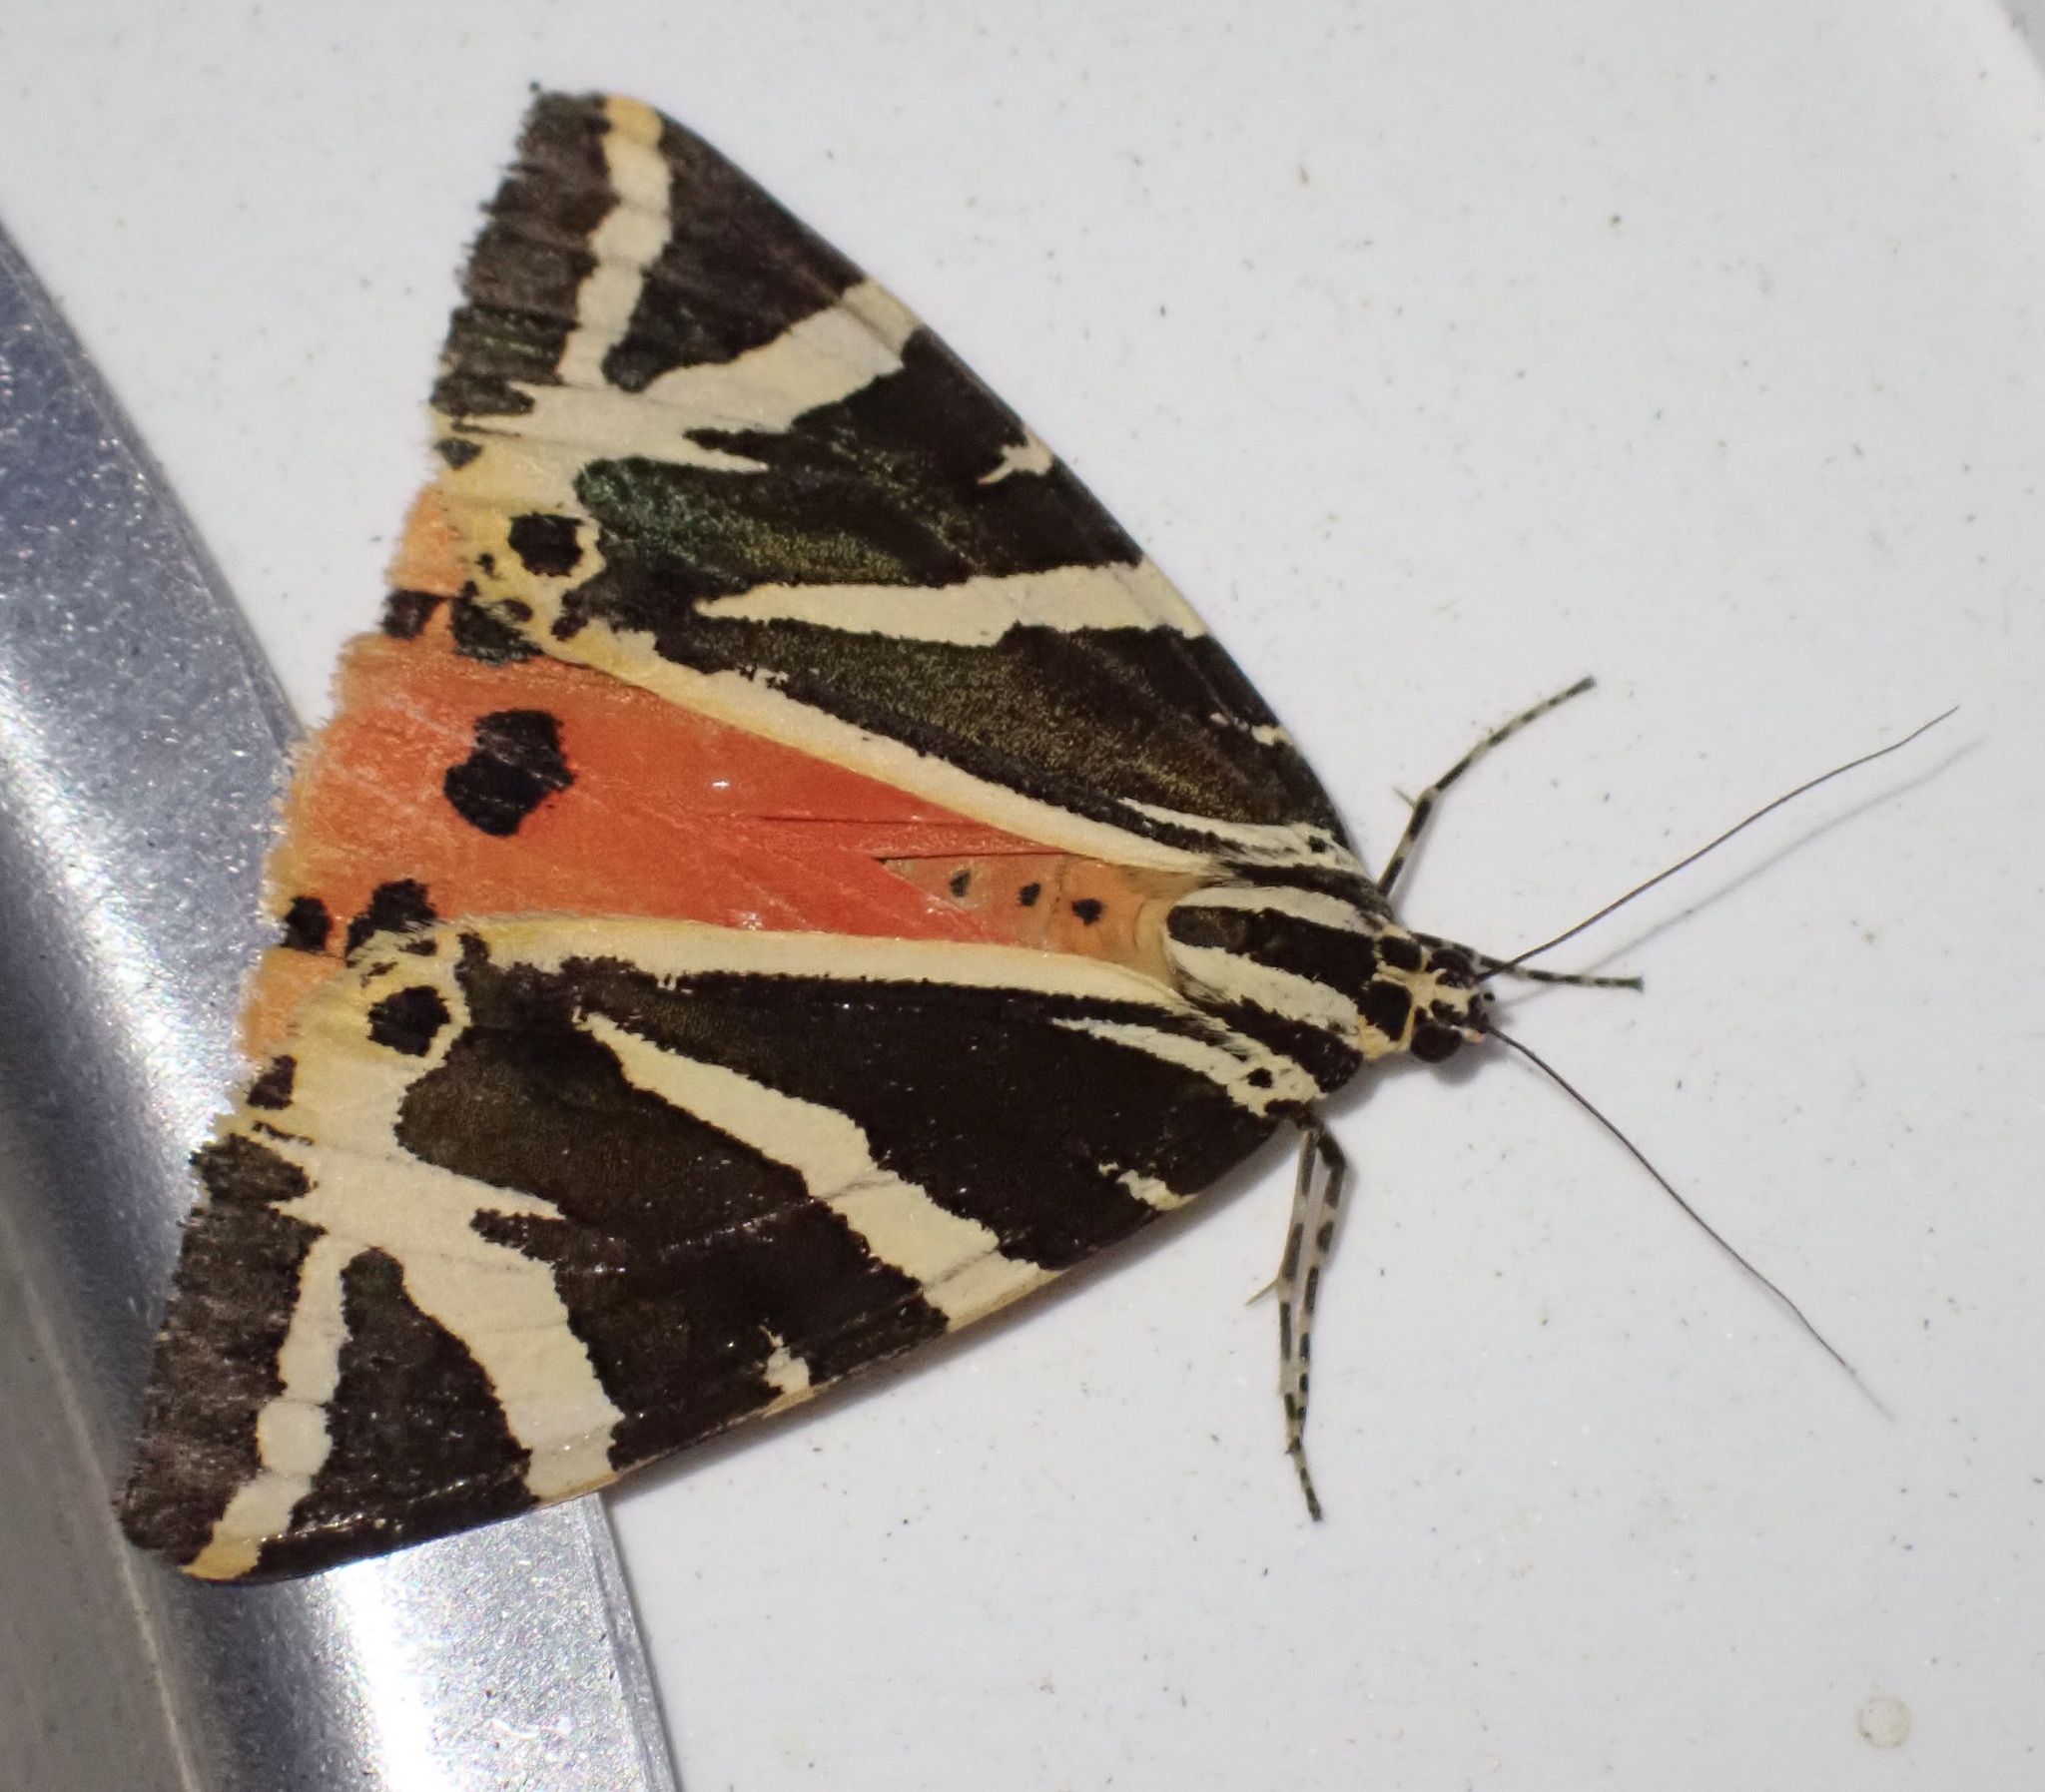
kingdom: Animalia
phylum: Arthropoda
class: Insecta
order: Lepidoptera
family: Erebidae
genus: Euplagia
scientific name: Euplagia quadripunctaria
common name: Jersey tiger
